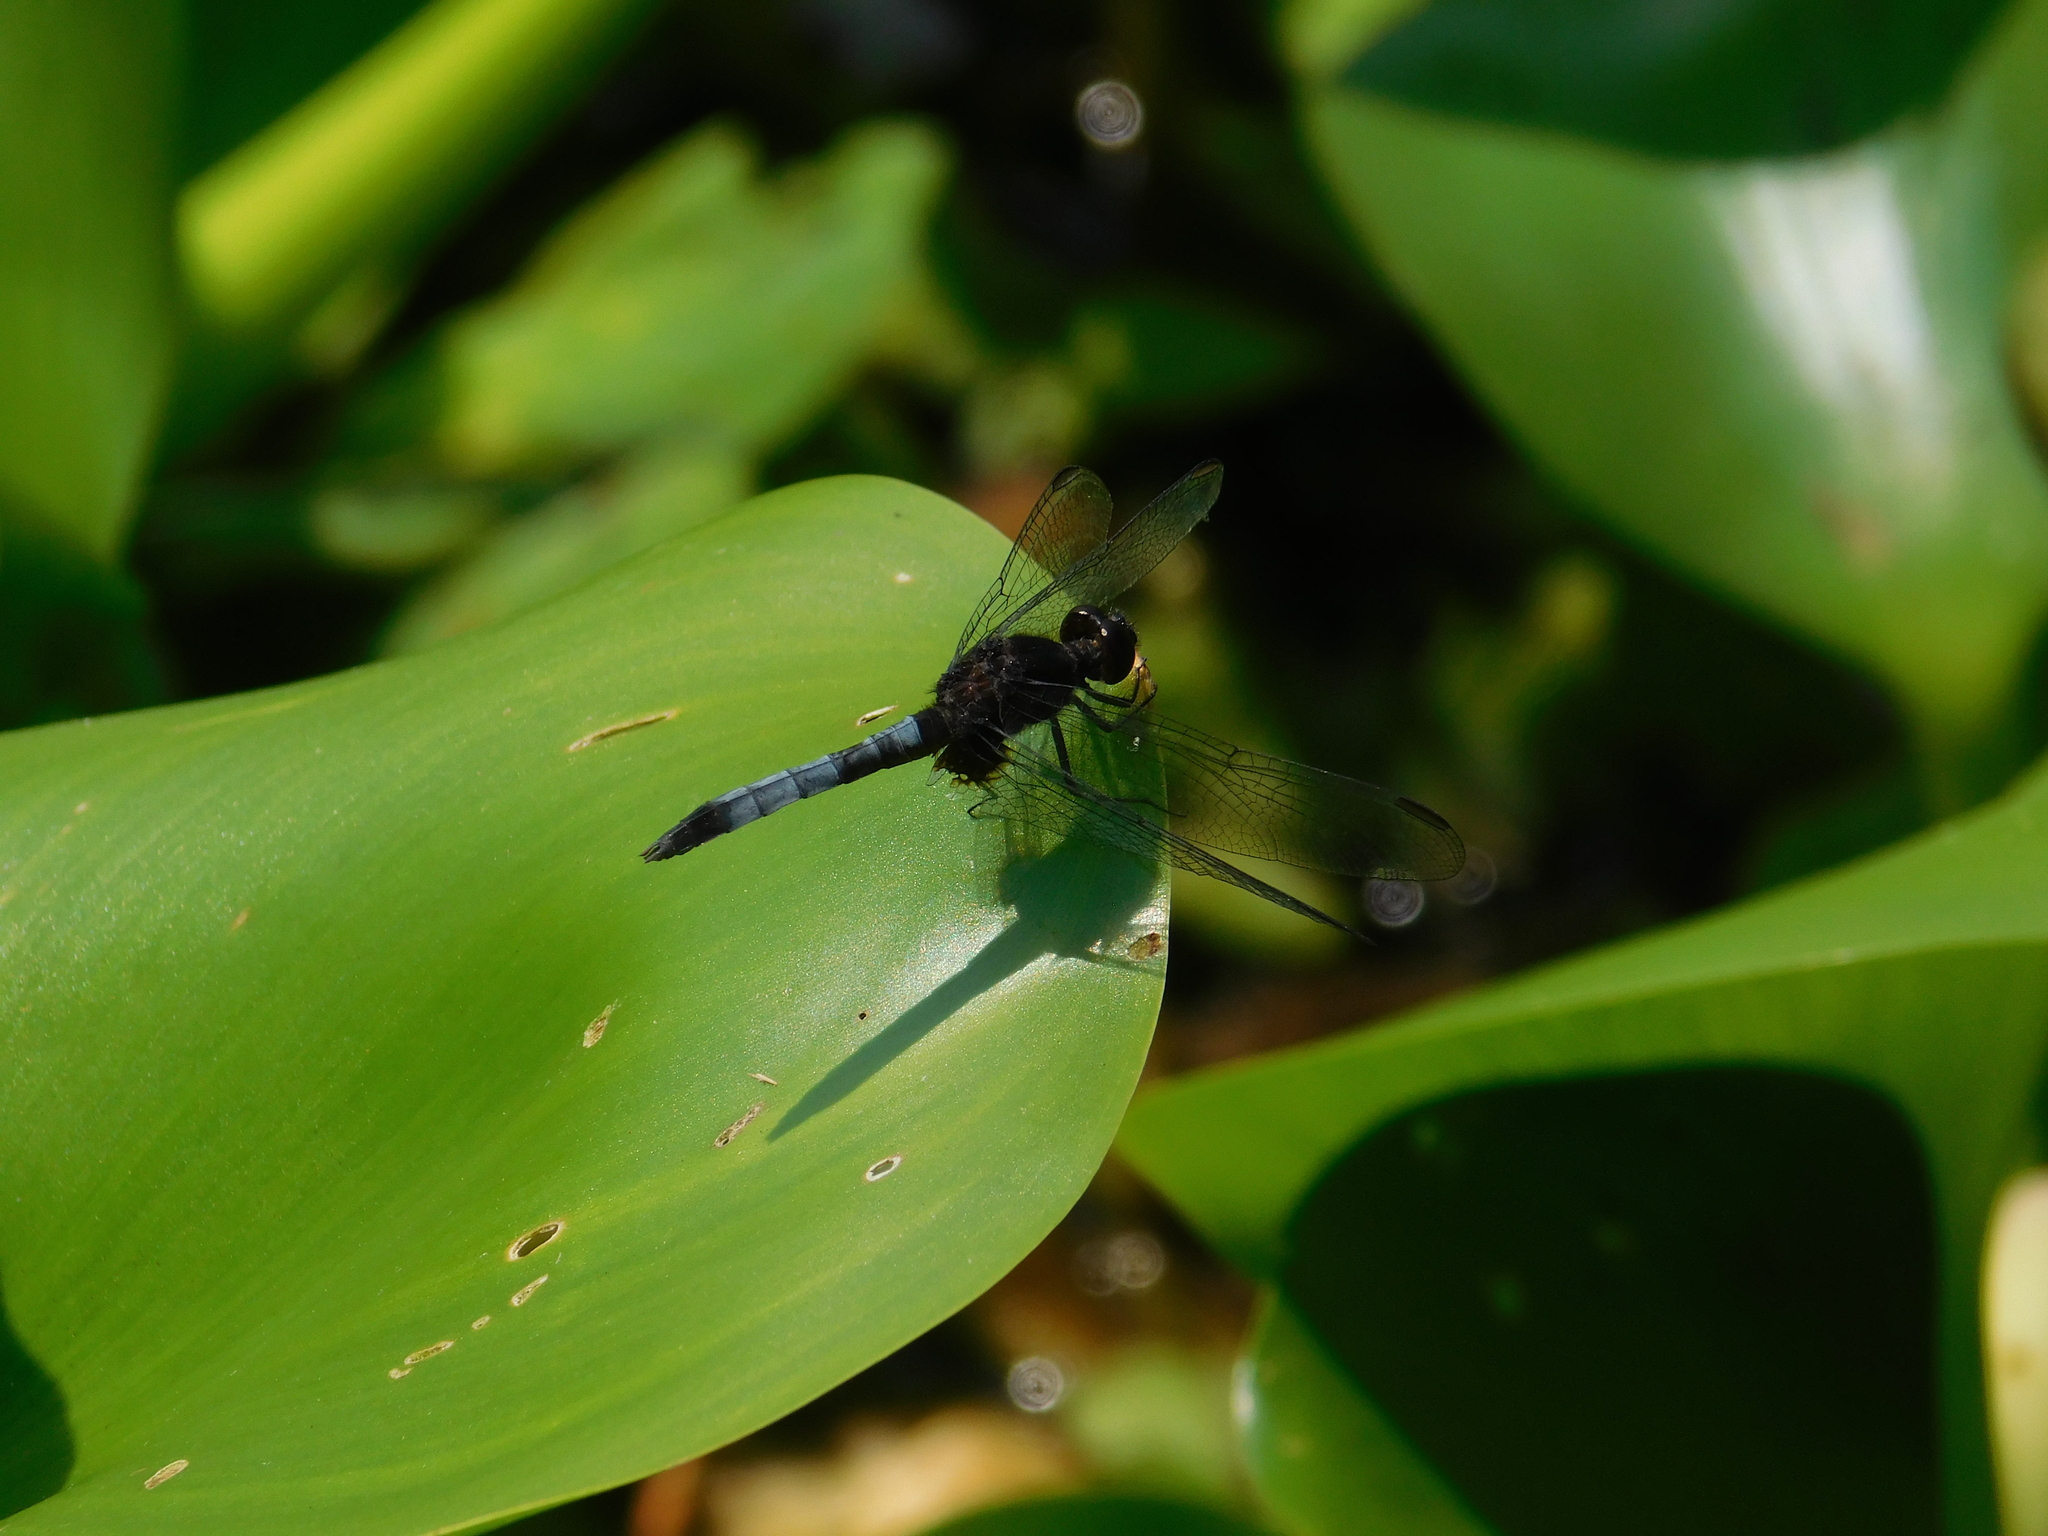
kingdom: Animalia
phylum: Arthropoda
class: Insecta
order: Odonata
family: Libellulidae
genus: Erythrodiplax
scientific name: Erythrodiplax media
